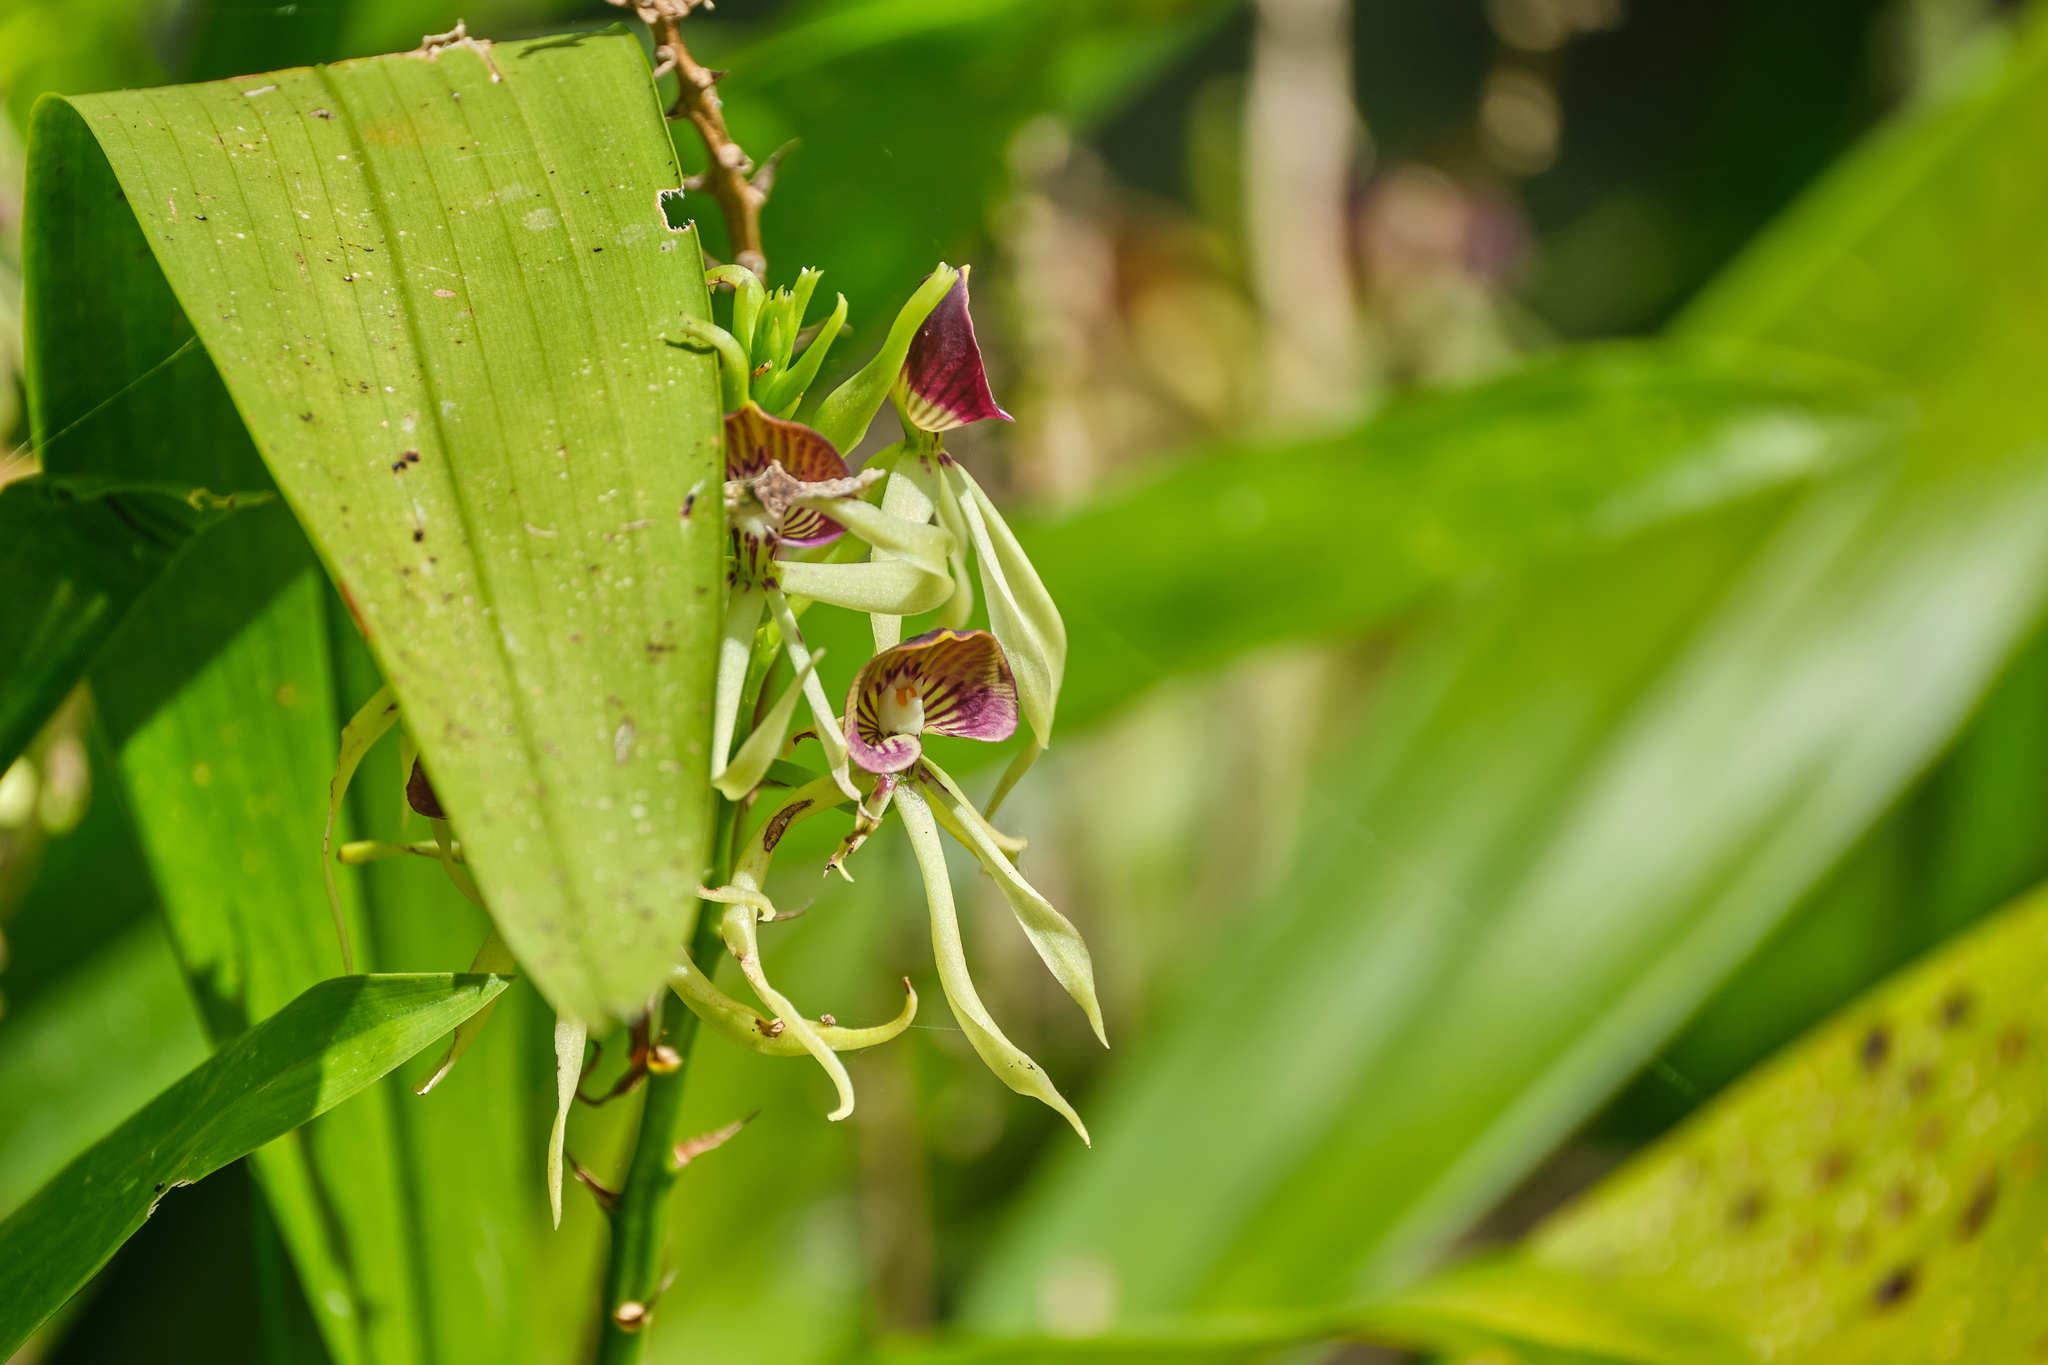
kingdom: Plantae
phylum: Tracheophyta
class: Liliopsida
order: Asparagales
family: Orchidaceae
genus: Prosthechea
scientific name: Prosthechea cochleata
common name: Clamshell orchid
